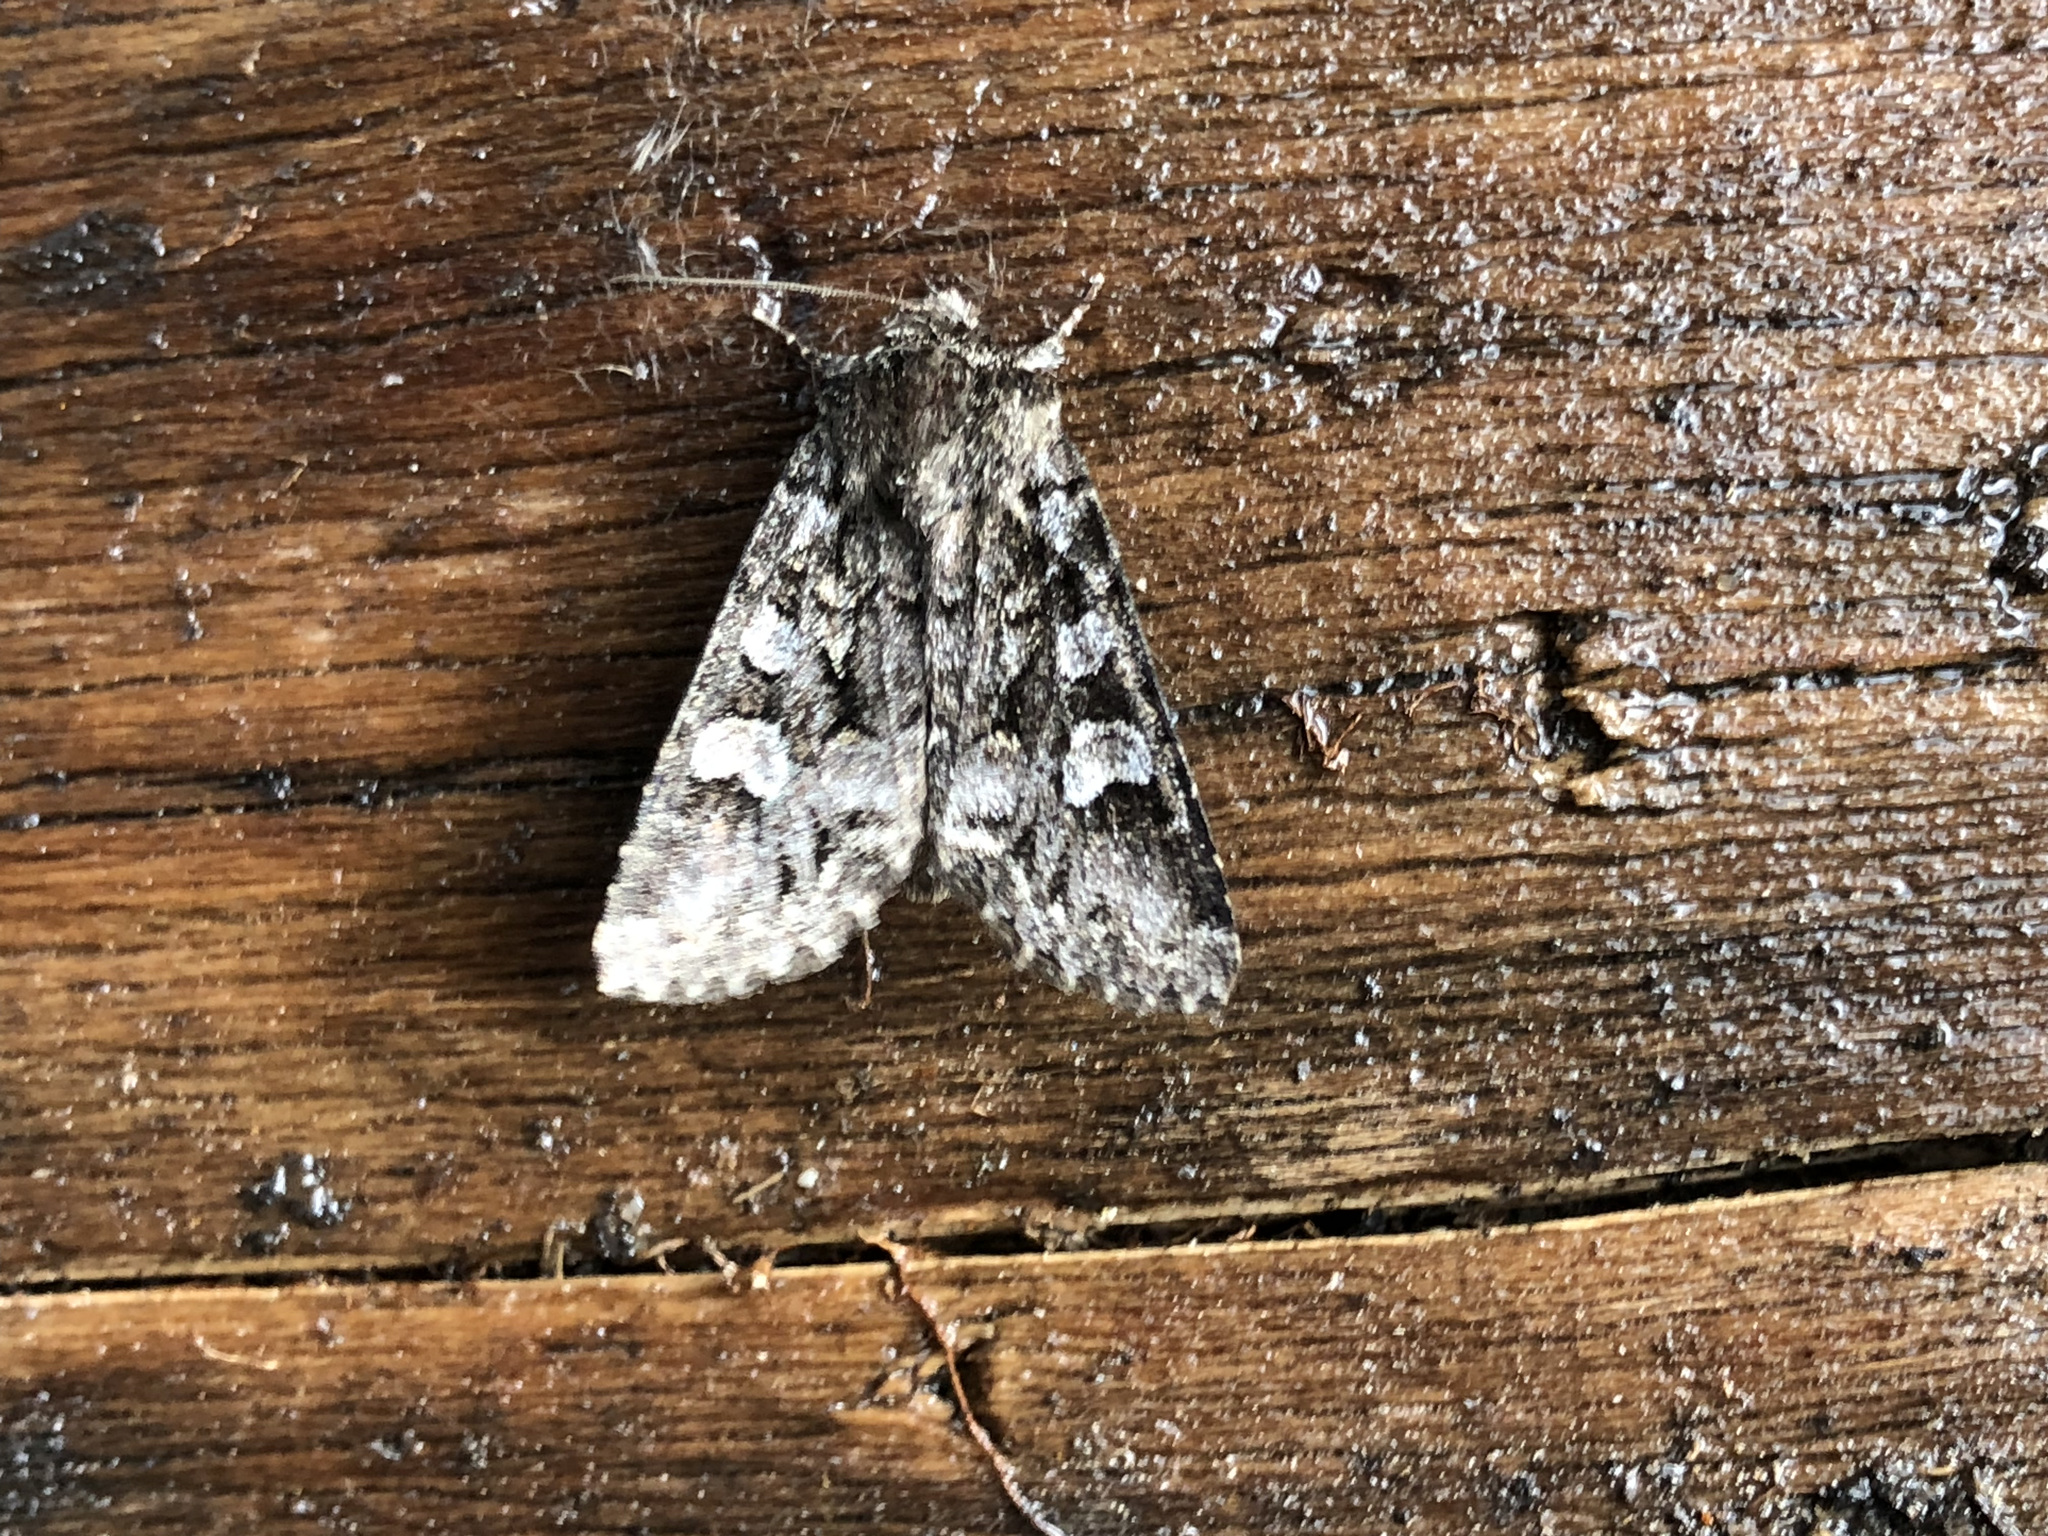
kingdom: Animalia
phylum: Arthropoda
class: Insecta
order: Lepidoptera
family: Noctuidae
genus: Papestra
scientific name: Papestra biren
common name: Glaucous shears
